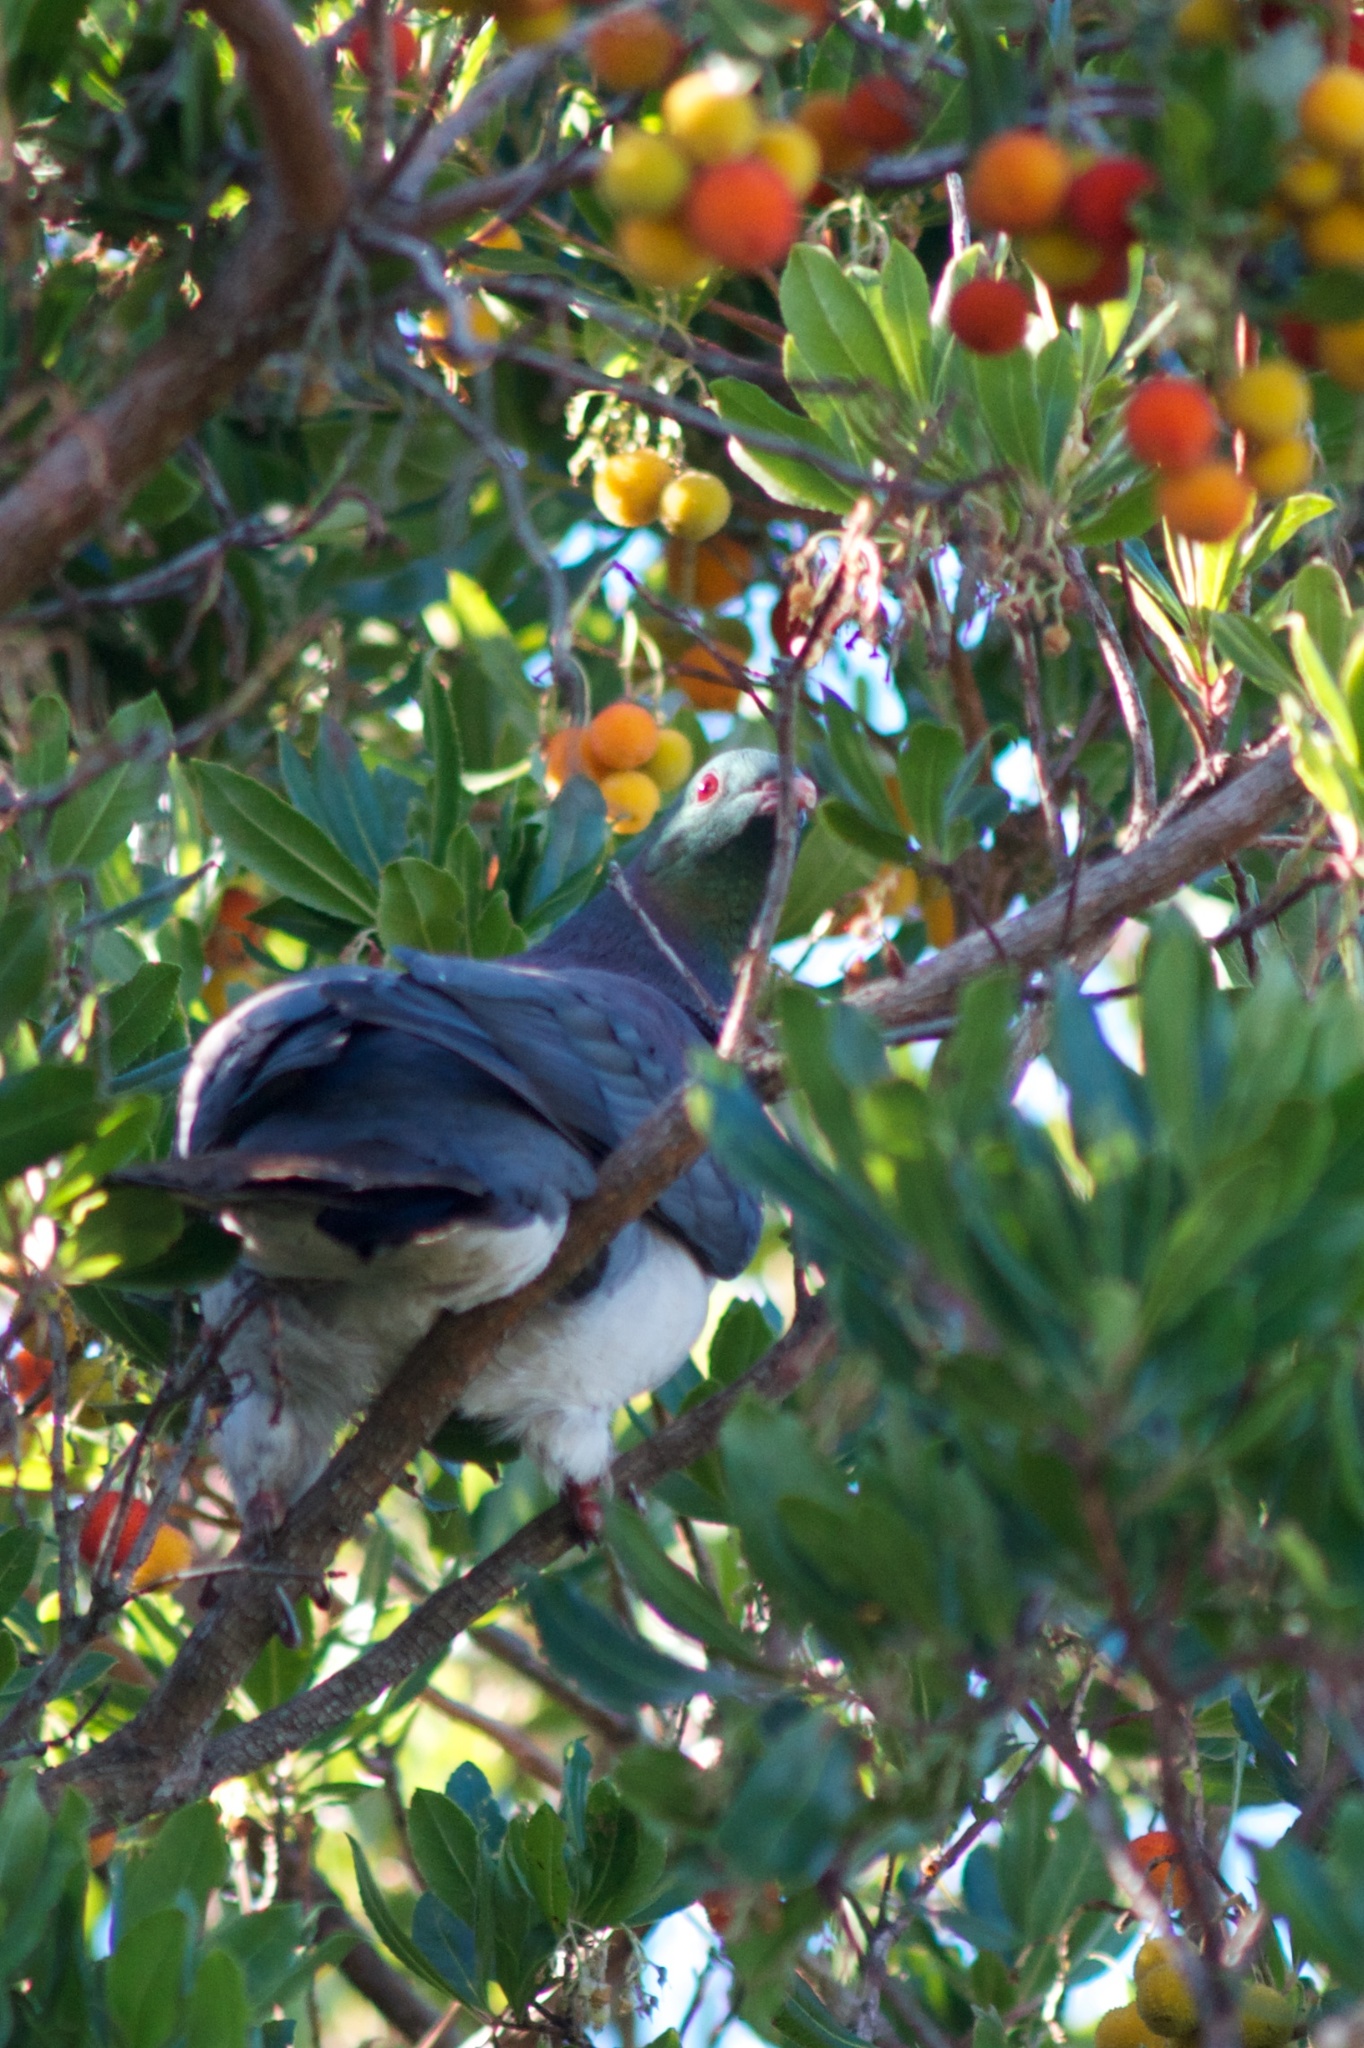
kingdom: Animalia
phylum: Chordata
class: Aves
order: Columbiformes
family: Columbidae
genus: Hemiphaga
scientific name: Hemiphaga novaeseelandiae
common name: New zealand pigeon
